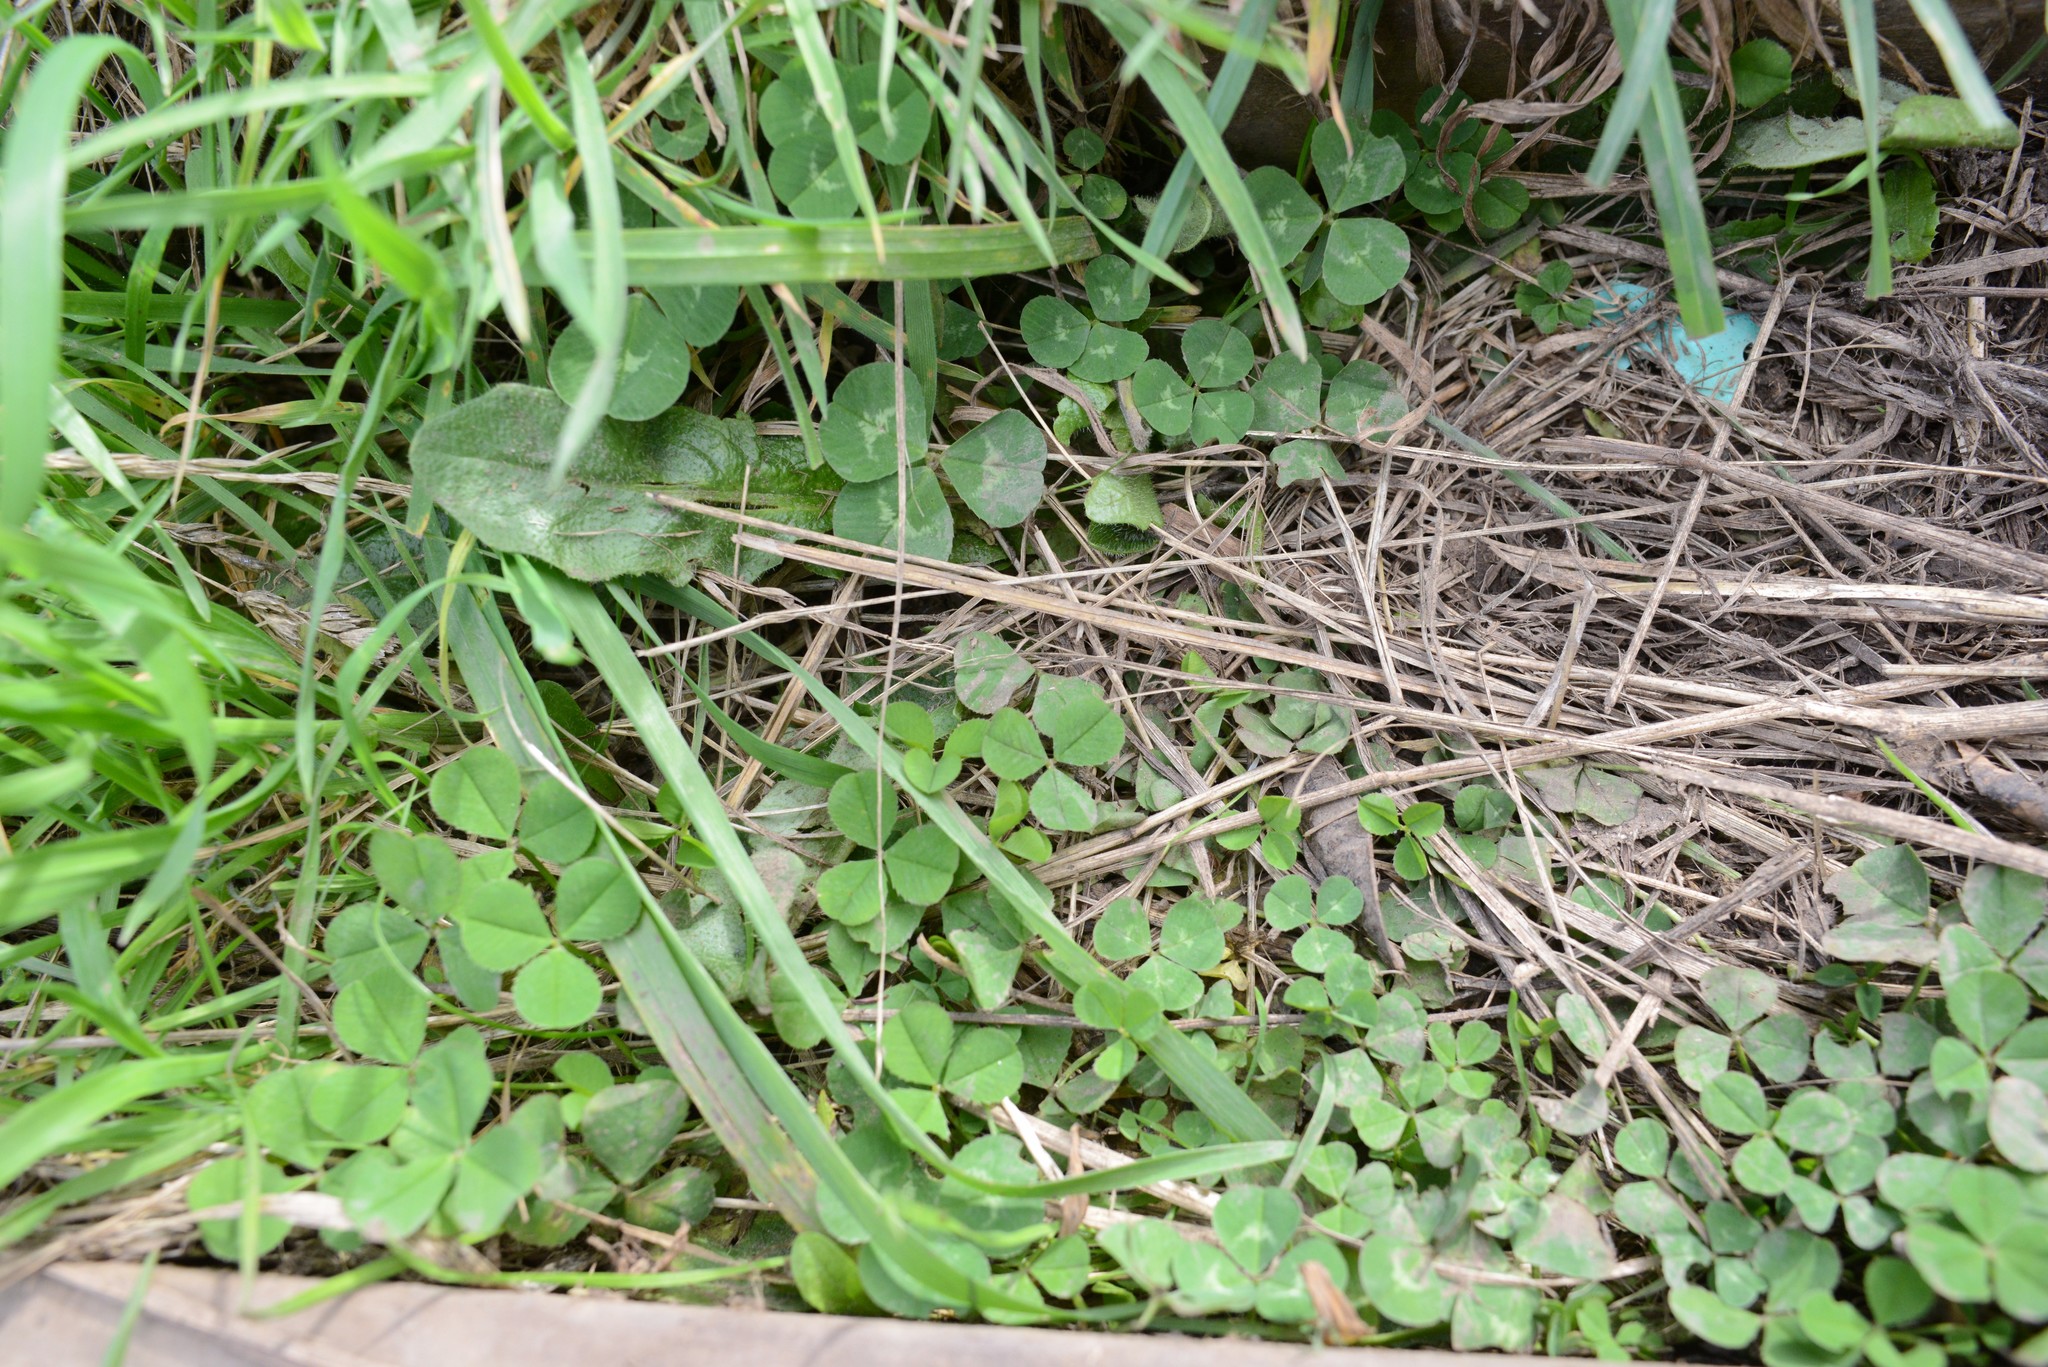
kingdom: Plantae
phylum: Tracheophyta
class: Magnoliopsida
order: Fabales
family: Fabaceae
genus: Trifolium
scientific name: Trifolium repens
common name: White clover
